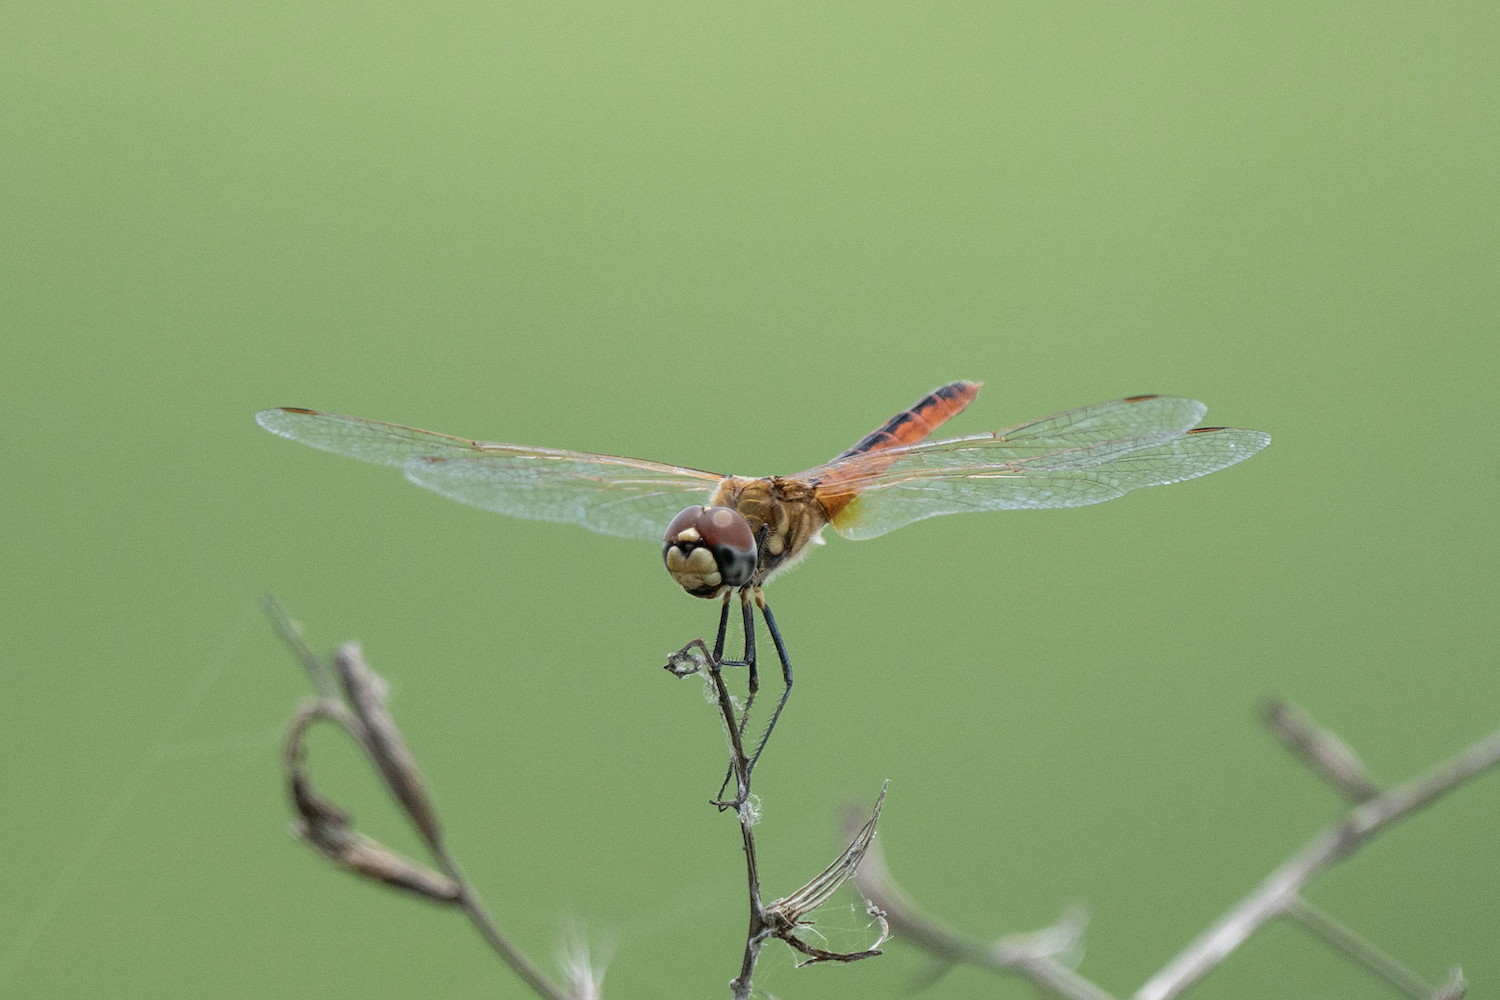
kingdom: Animalia
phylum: Arthropoda
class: Insecta
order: Odonata
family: Libellulidae
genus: Macrodiplax
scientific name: Macrodiplax cora
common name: Coastal glider
